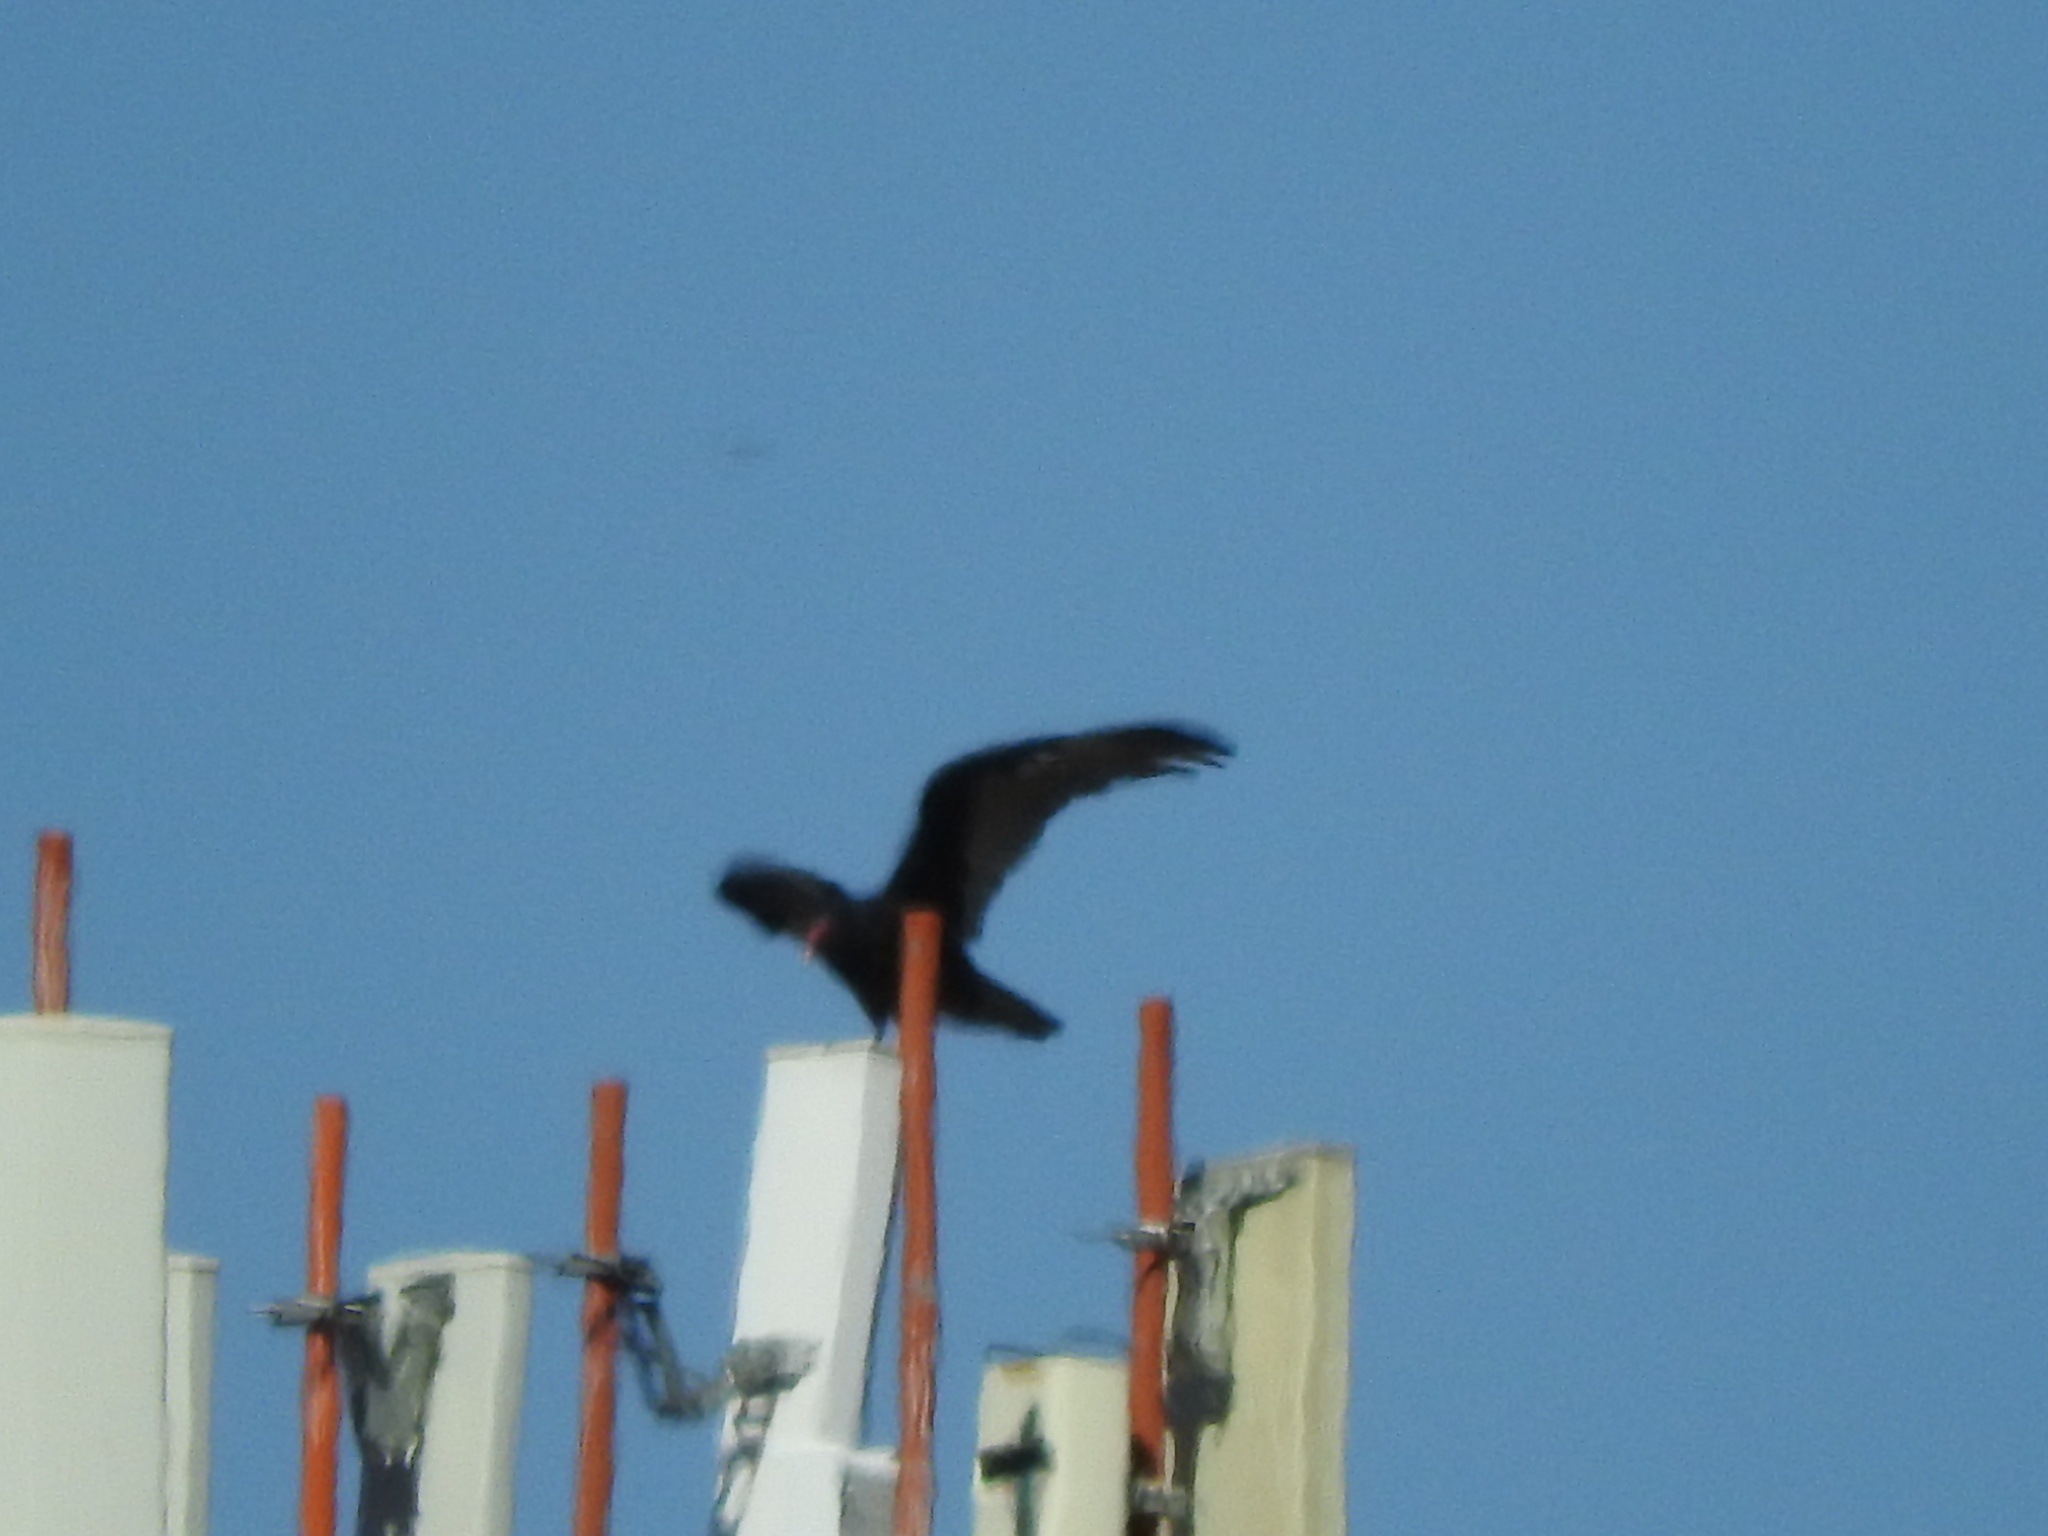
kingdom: Animalia
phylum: Chordata
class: Aves
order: Accipitriformes
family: Cathartidae
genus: Cathartes
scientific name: Cathartes aura
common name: Turkey vulture
